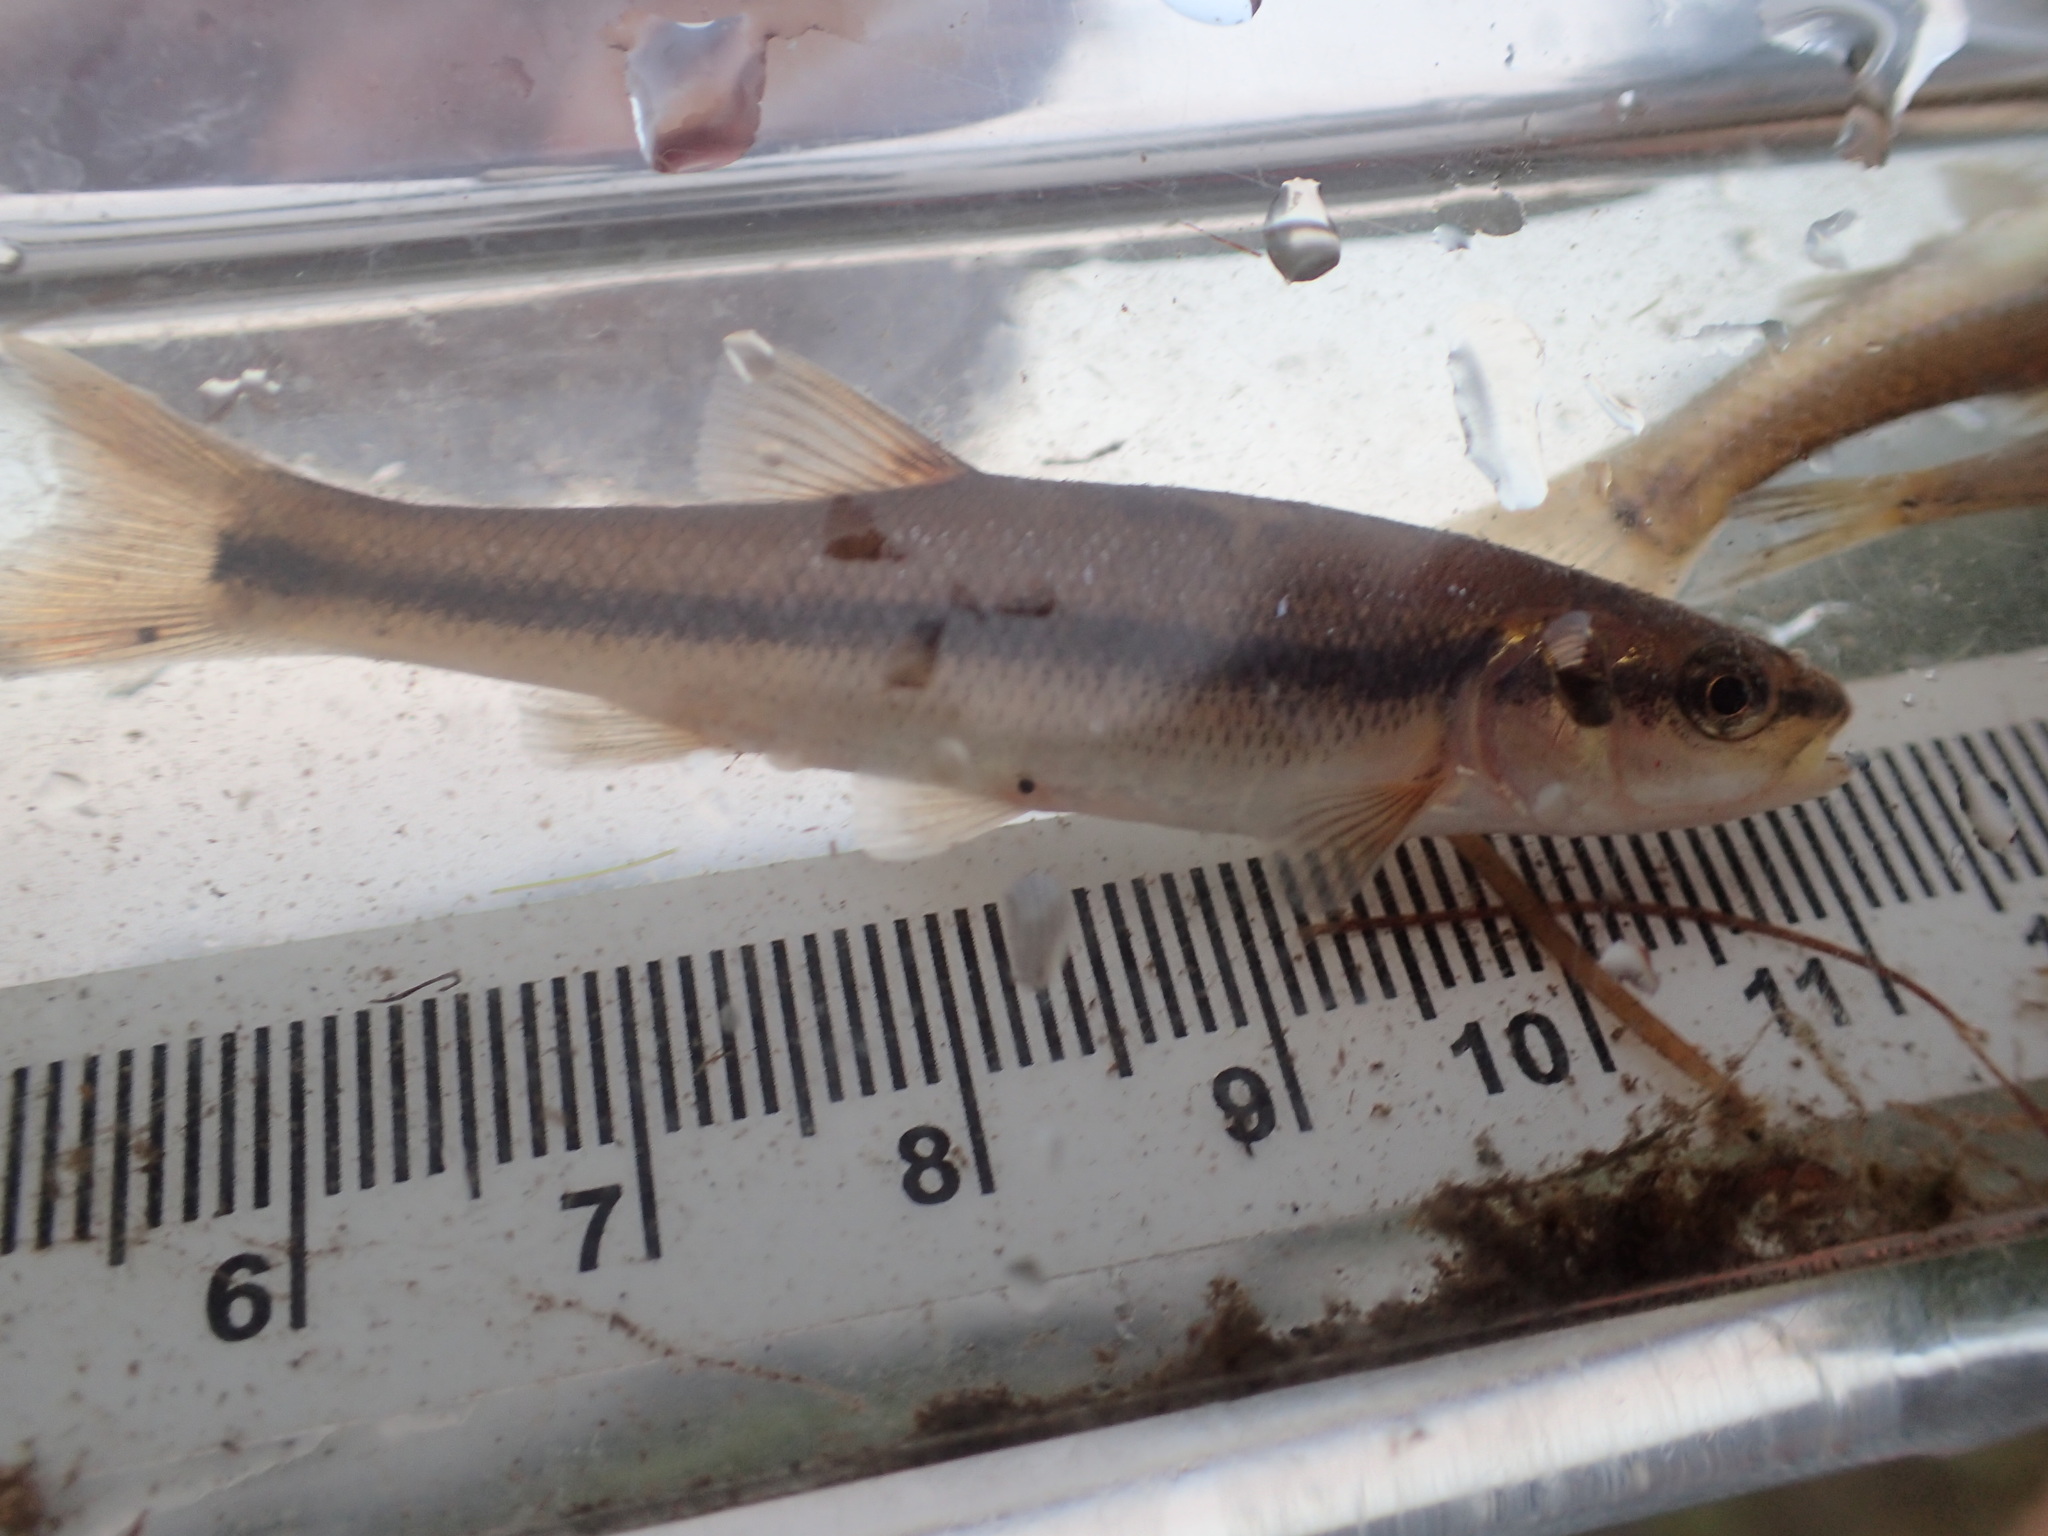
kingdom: Animalia
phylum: Chordata
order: Cypriniformes
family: Cyprinidae
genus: Semotilus
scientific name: Semotilus atromaculatus
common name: Creek chub
